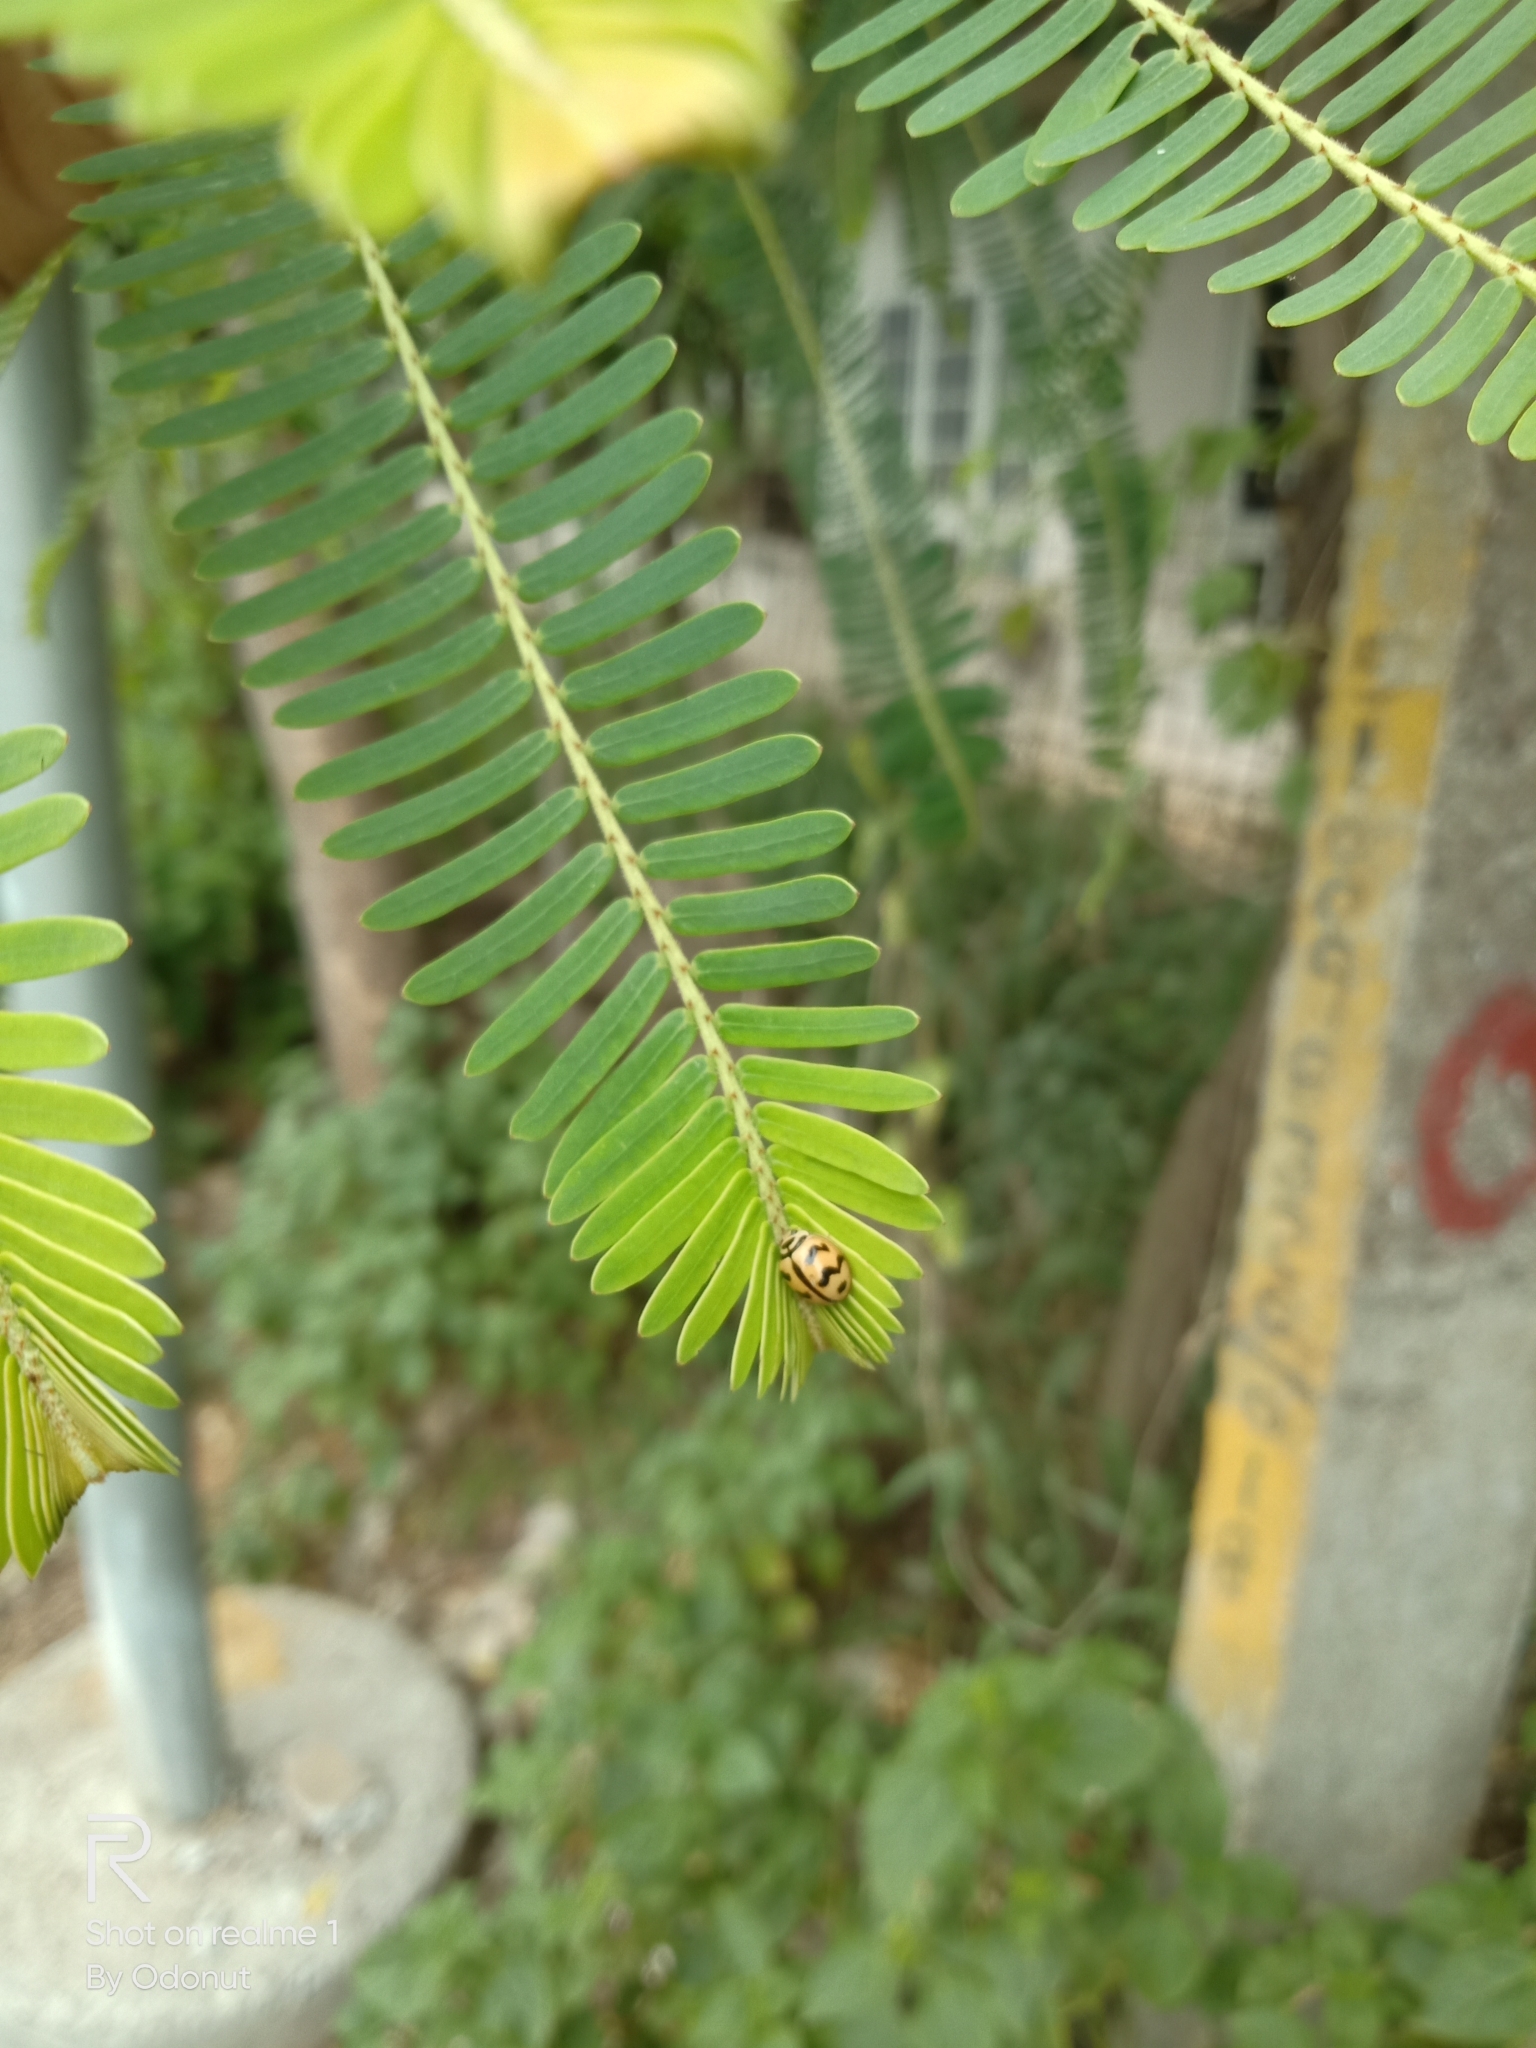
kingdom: Animalia
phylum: Arthropoda
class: Insecta
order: Coleoptera
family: Coccinellidae
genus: Cheilomenes
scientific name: Cheilomenes sexmaculata
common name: Ladybird beetle
